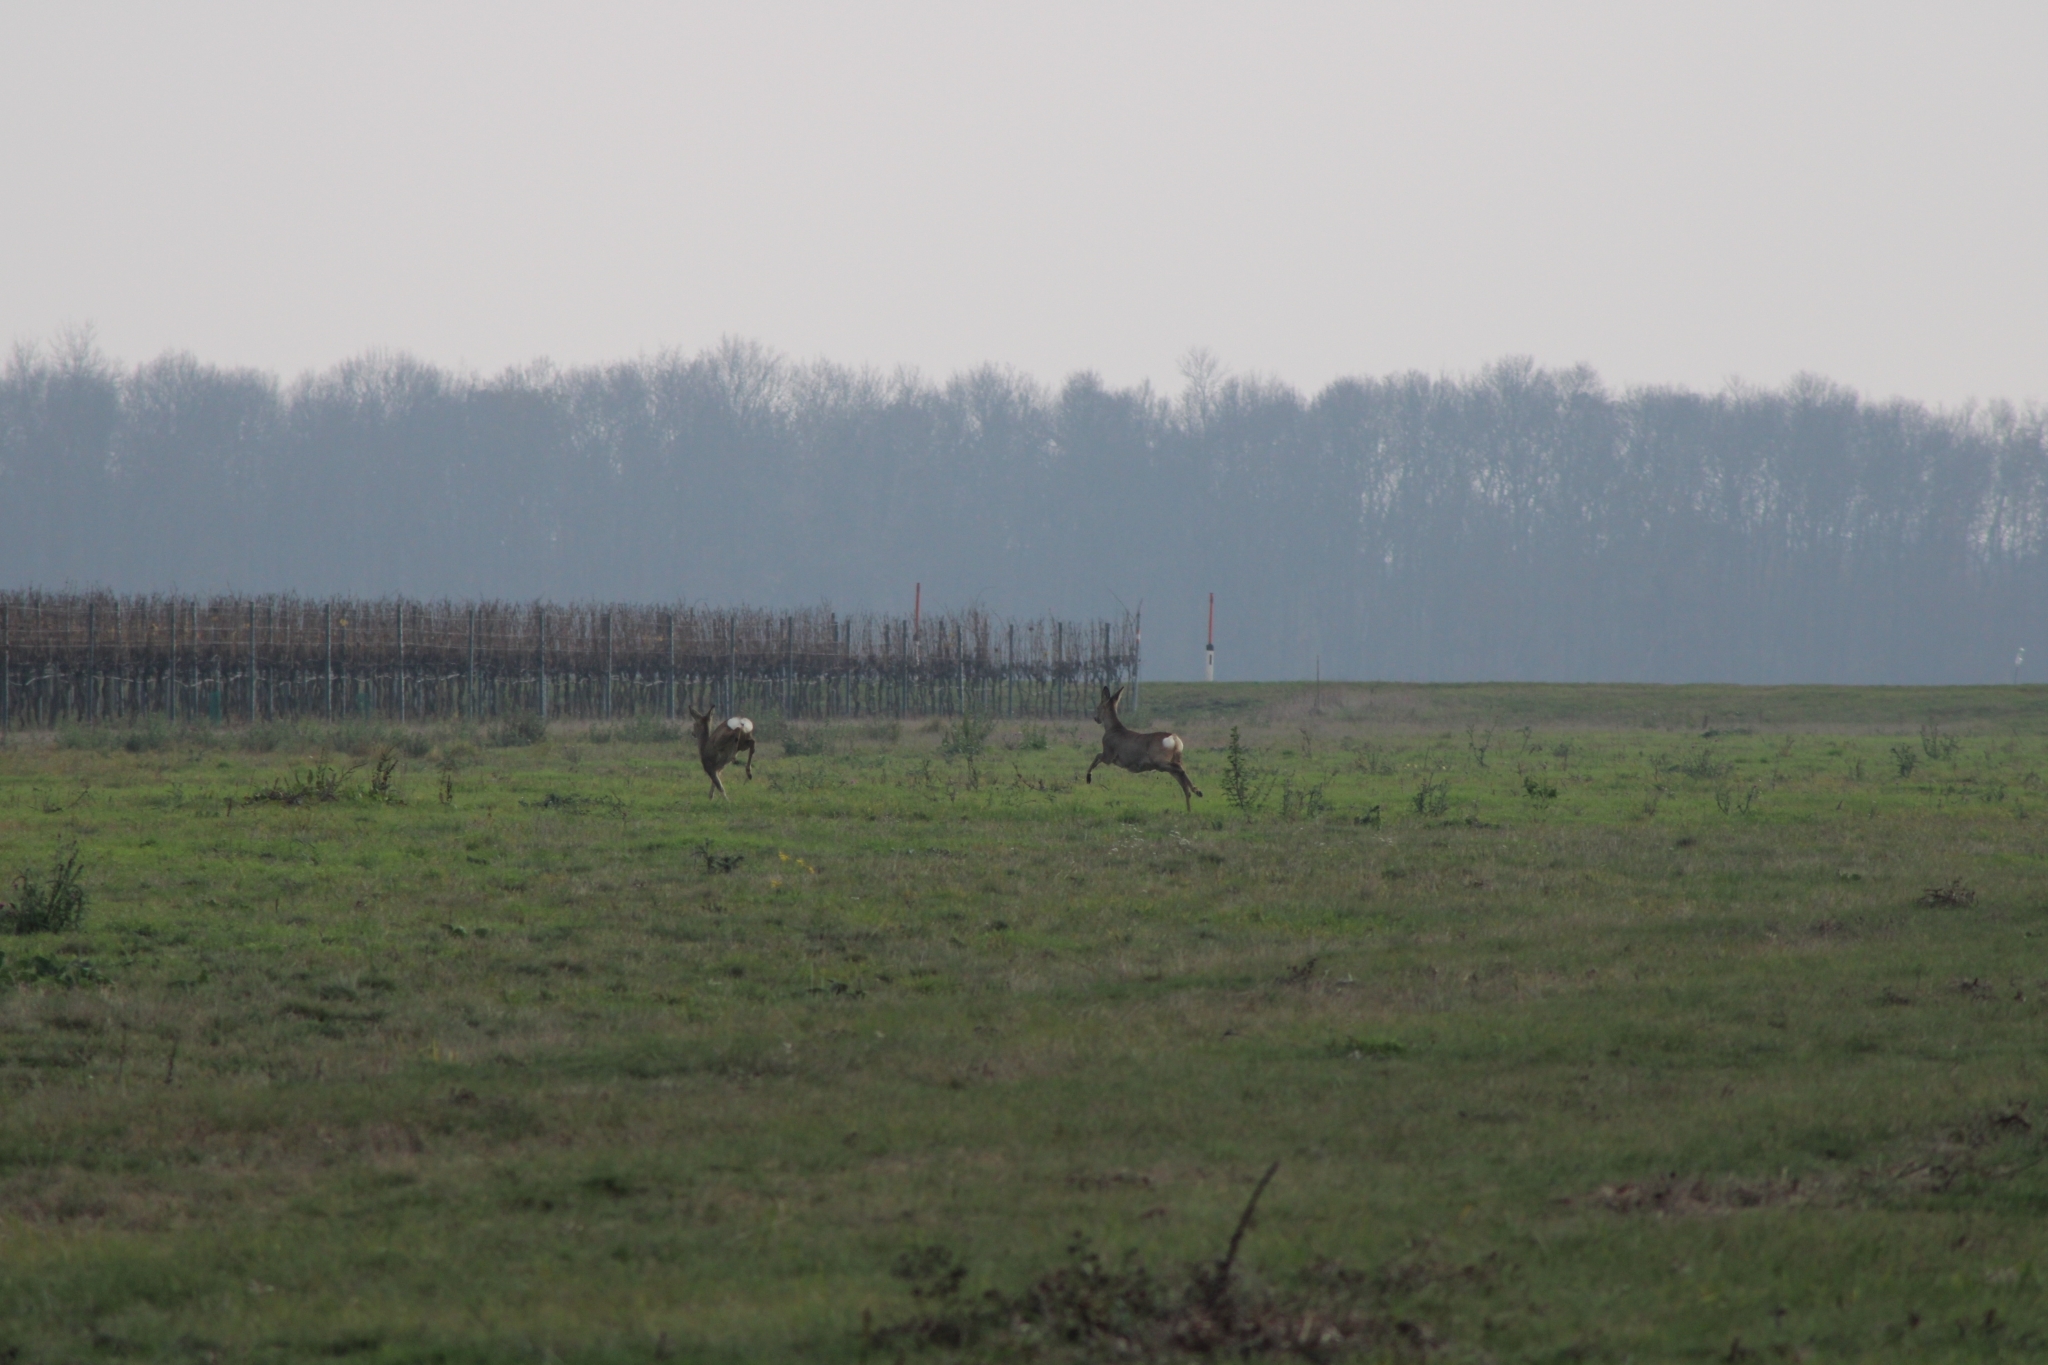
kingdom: Animalia
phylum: Chordata
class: Mammalia
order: Artiodactyla
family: Cervidae
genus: Capreolus
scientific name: Capreolus capreolus
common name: Western roe deer
